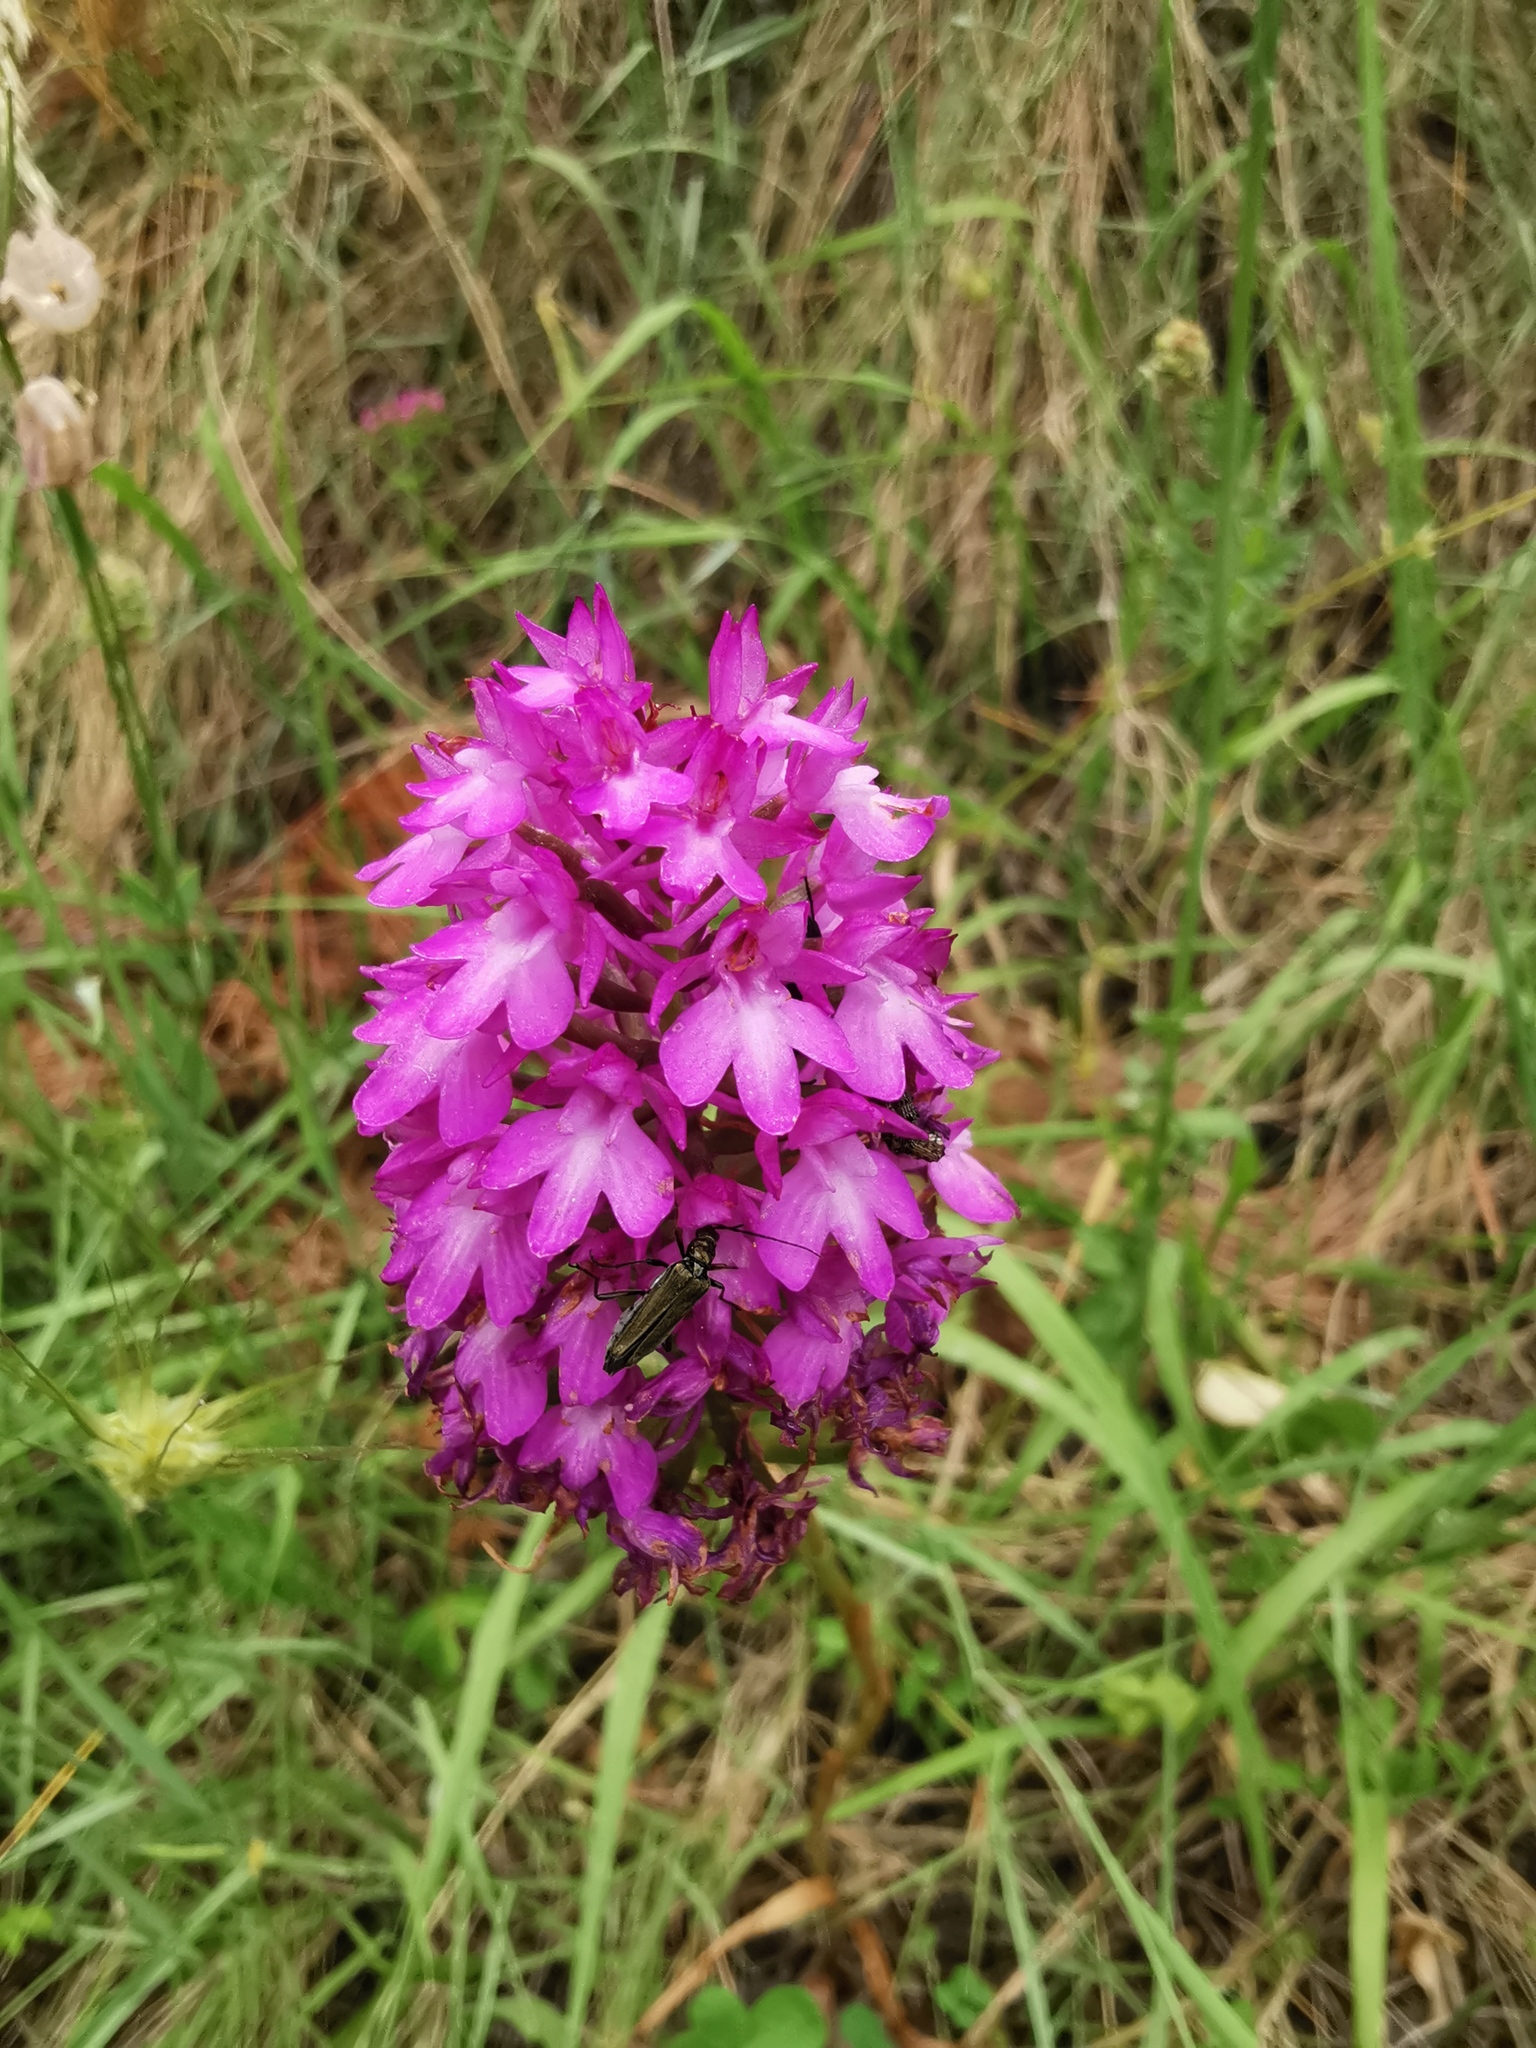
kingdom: Plantae
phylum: Tracheophyta
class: Liliopsida
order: Asparagales
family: Orchidaceae
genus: Anacamptis
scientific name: Anacamptis pyramidalis
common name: Pyramidal orchid
